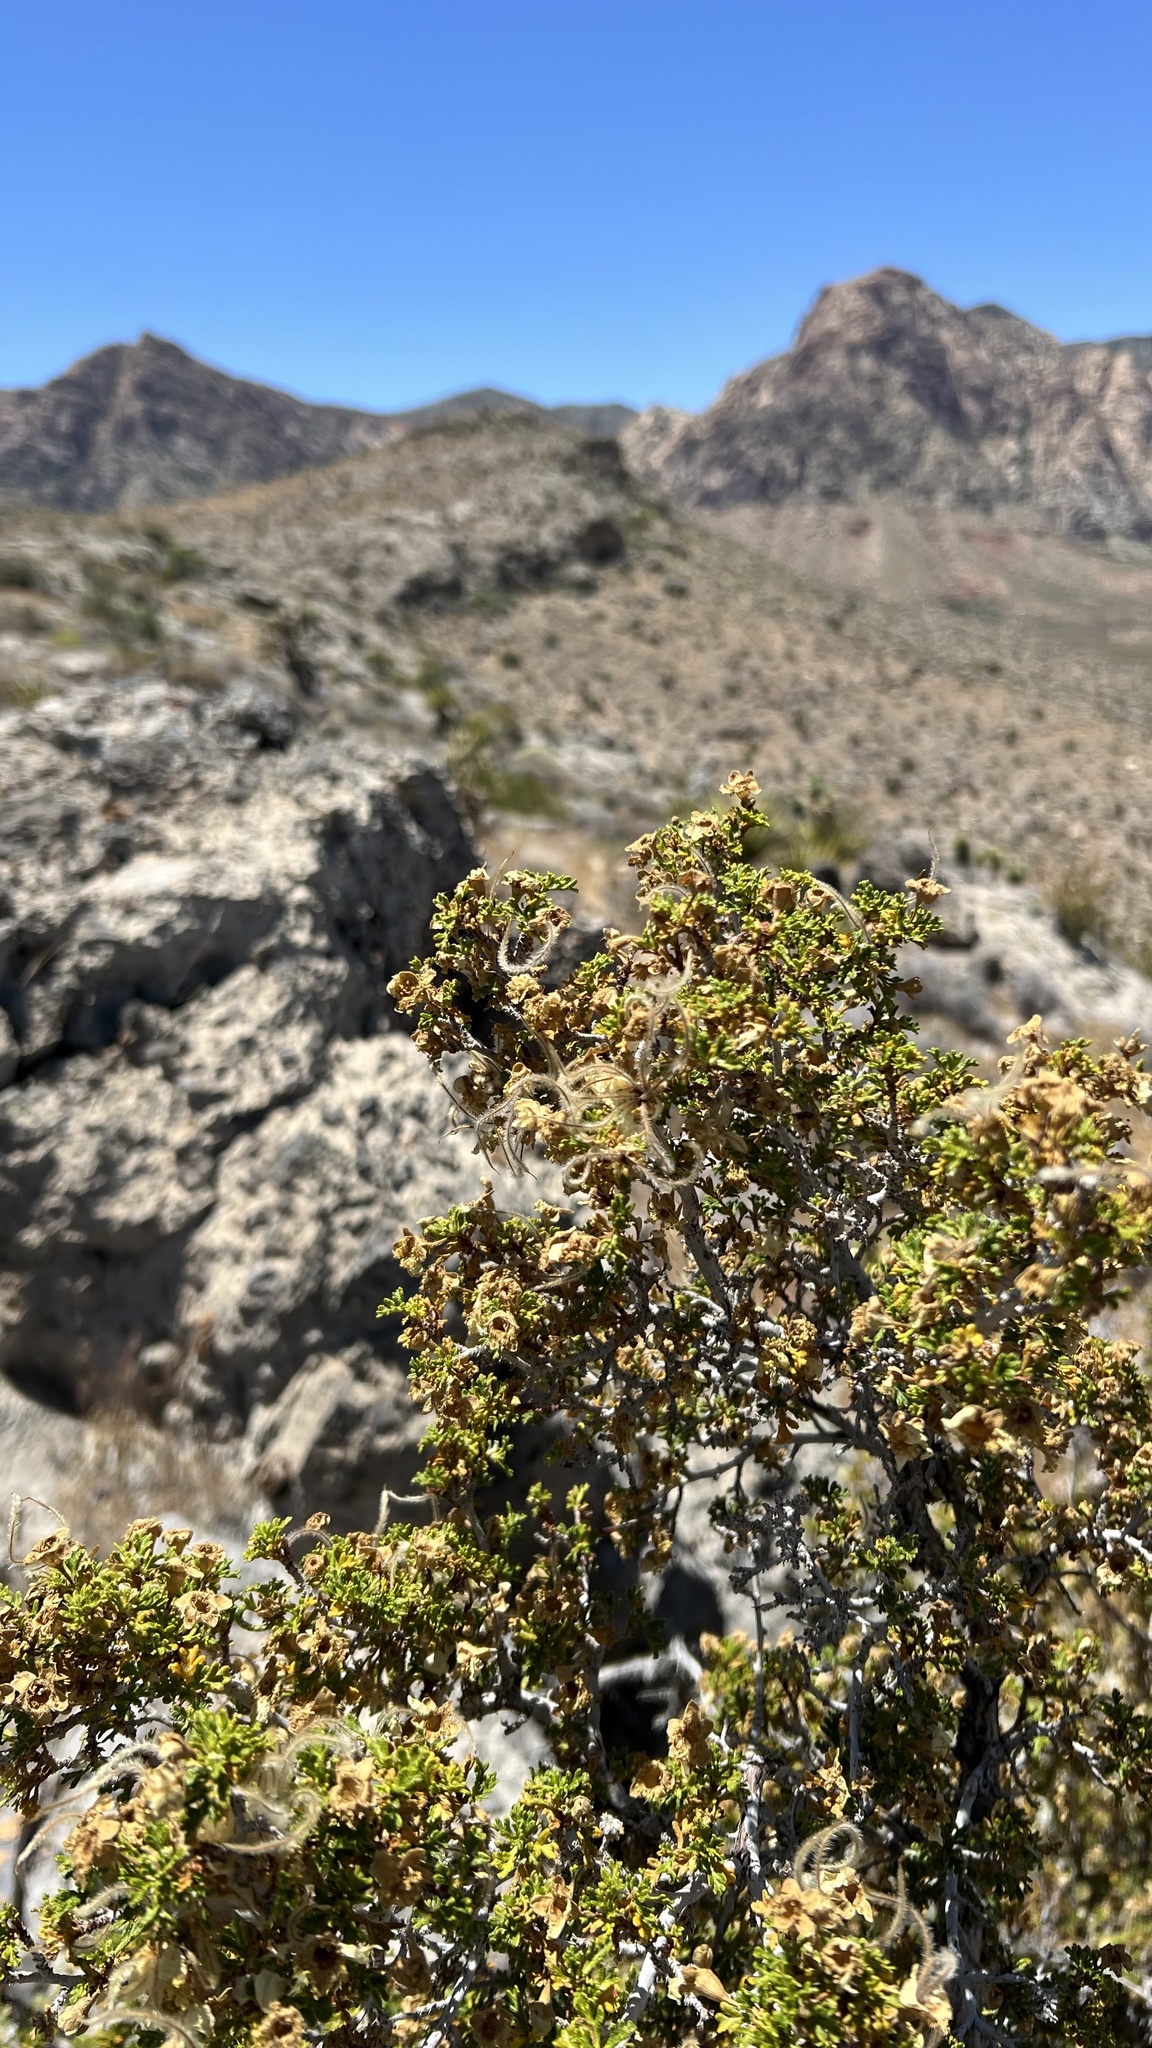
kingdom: Plantae
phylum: Tracheophyta
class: Magnoliopsida
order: Rosales
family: Rosaceae
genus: Purshia
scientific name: Purshia stansburiana
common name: Stansbury's cliffrose
